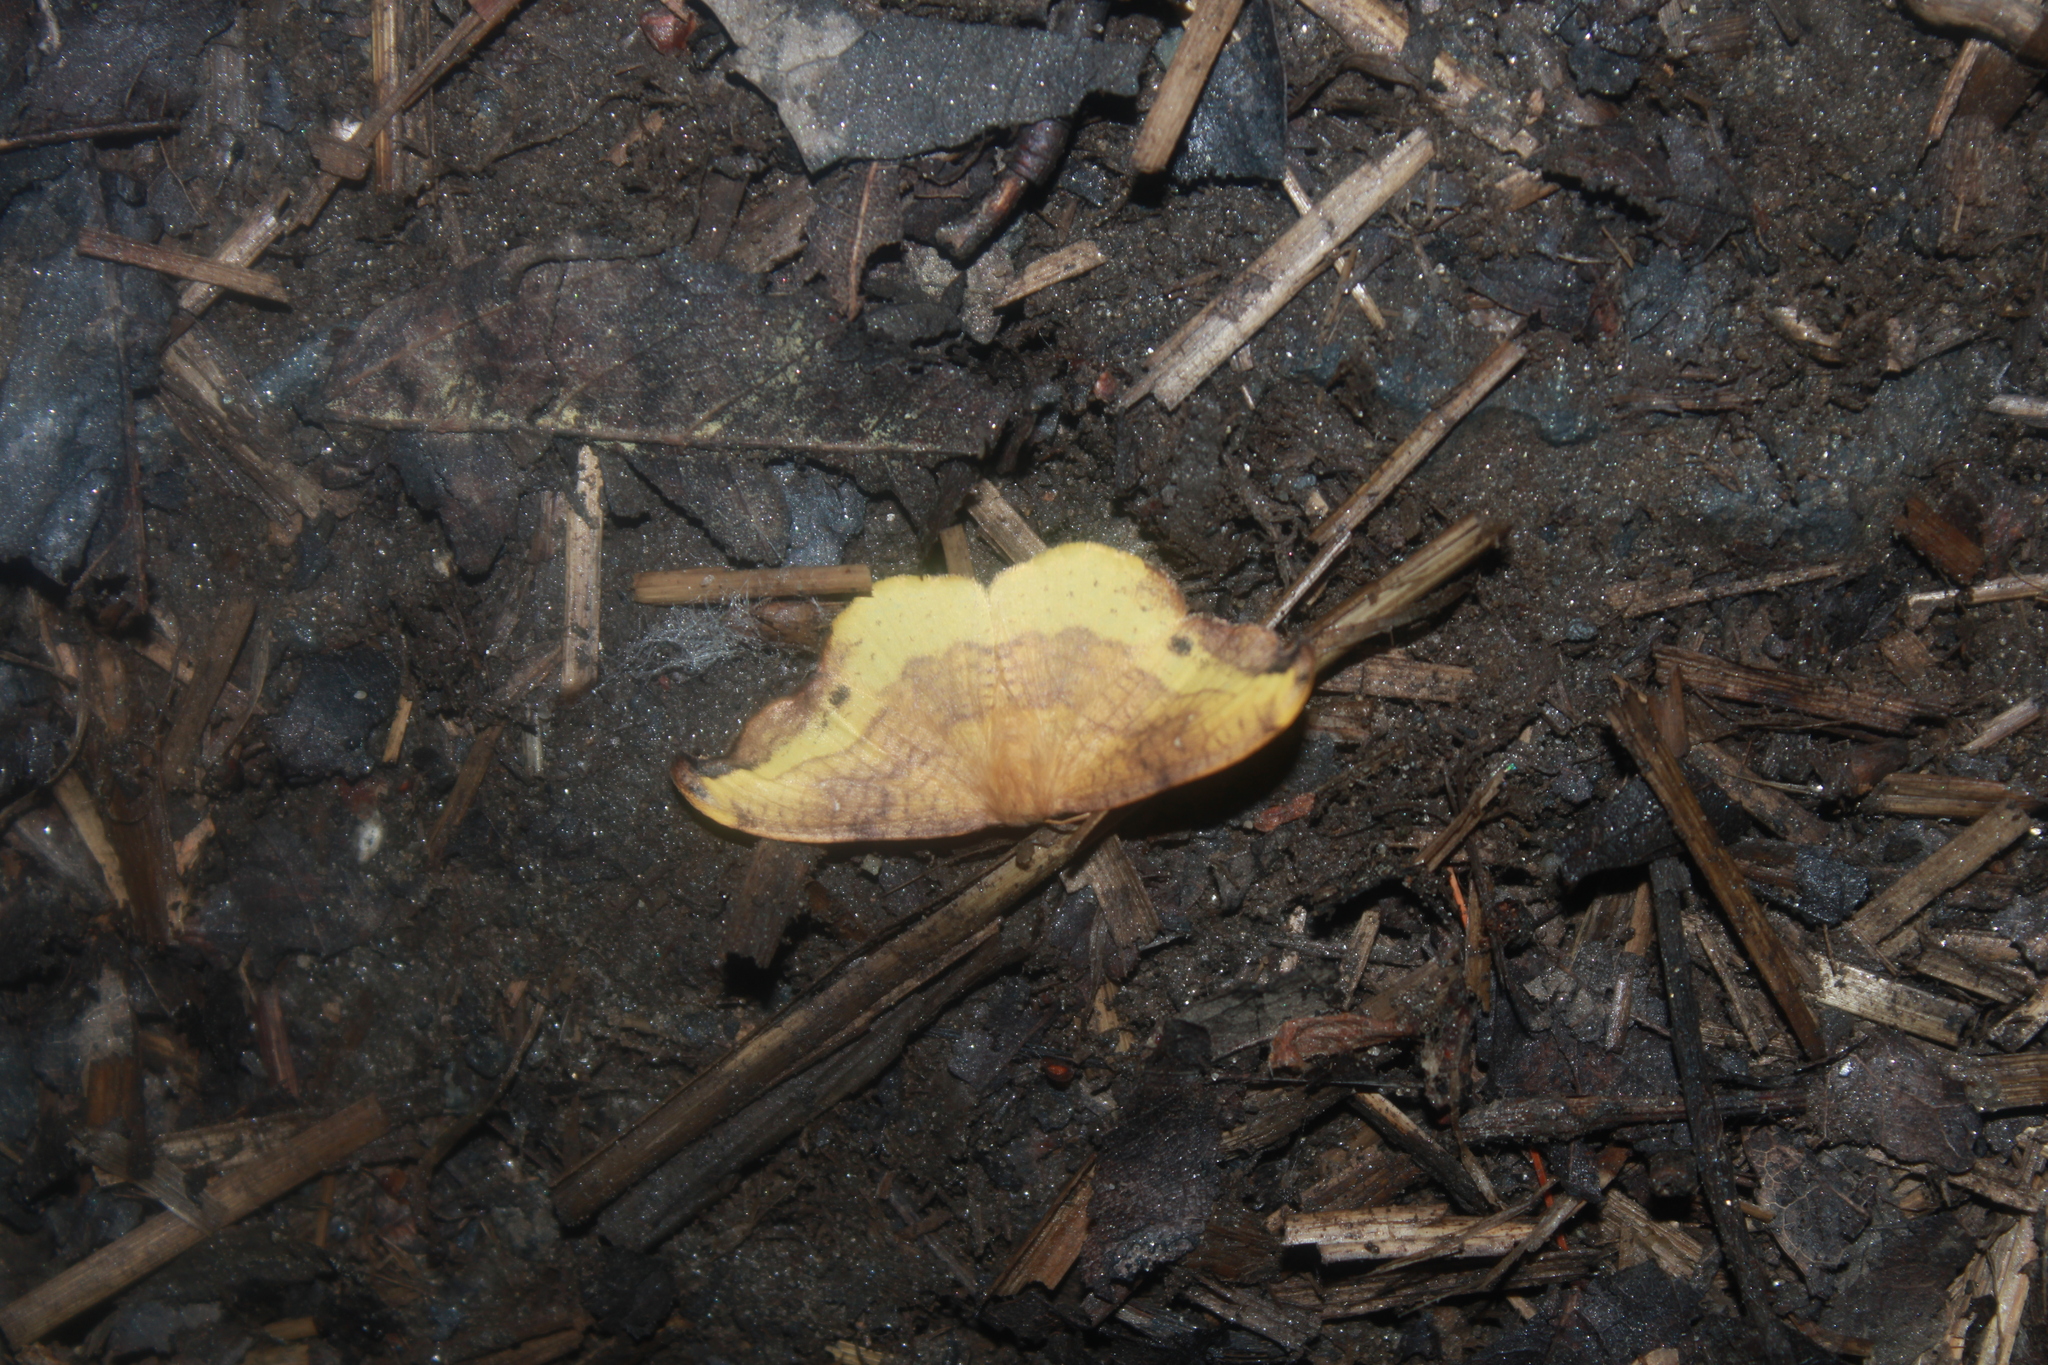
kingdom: Animalia
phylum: Arthropoda
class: Insecta
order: Lepidoptera
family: Drepanidae
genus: Oreta
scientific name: Oreta rosea
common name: Rose hooktip
